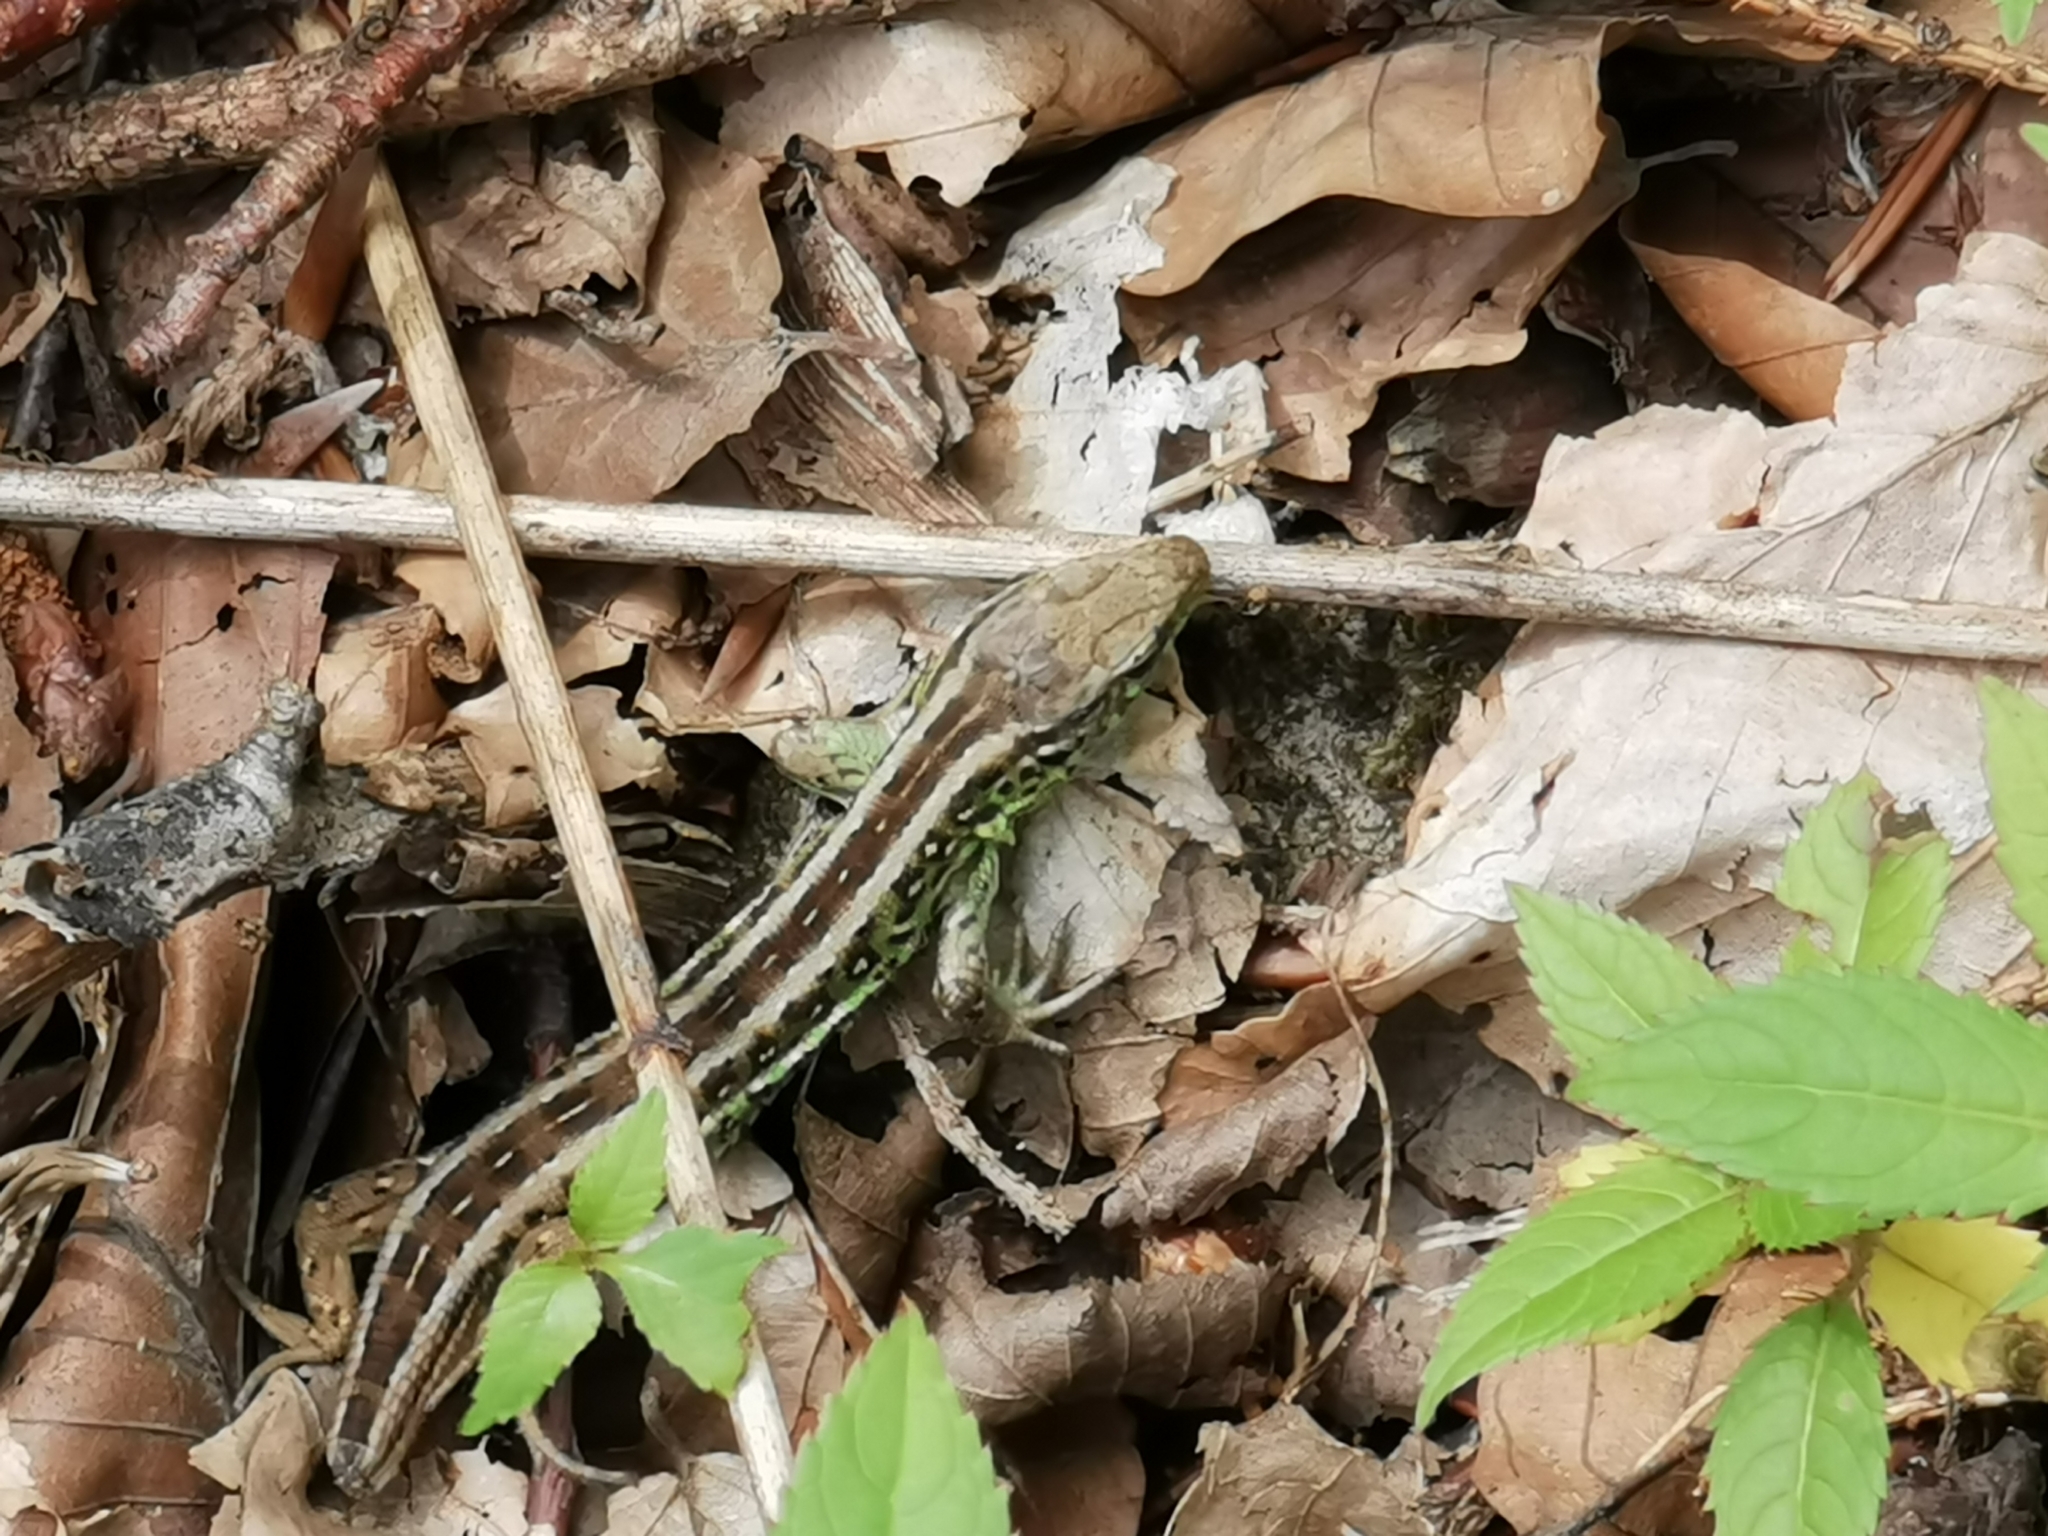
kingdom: Animalia
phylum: Chordata
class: Squamata
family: Lacertidae
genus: Lacerta
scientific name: Lacerta agilis
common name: Sand lizard
